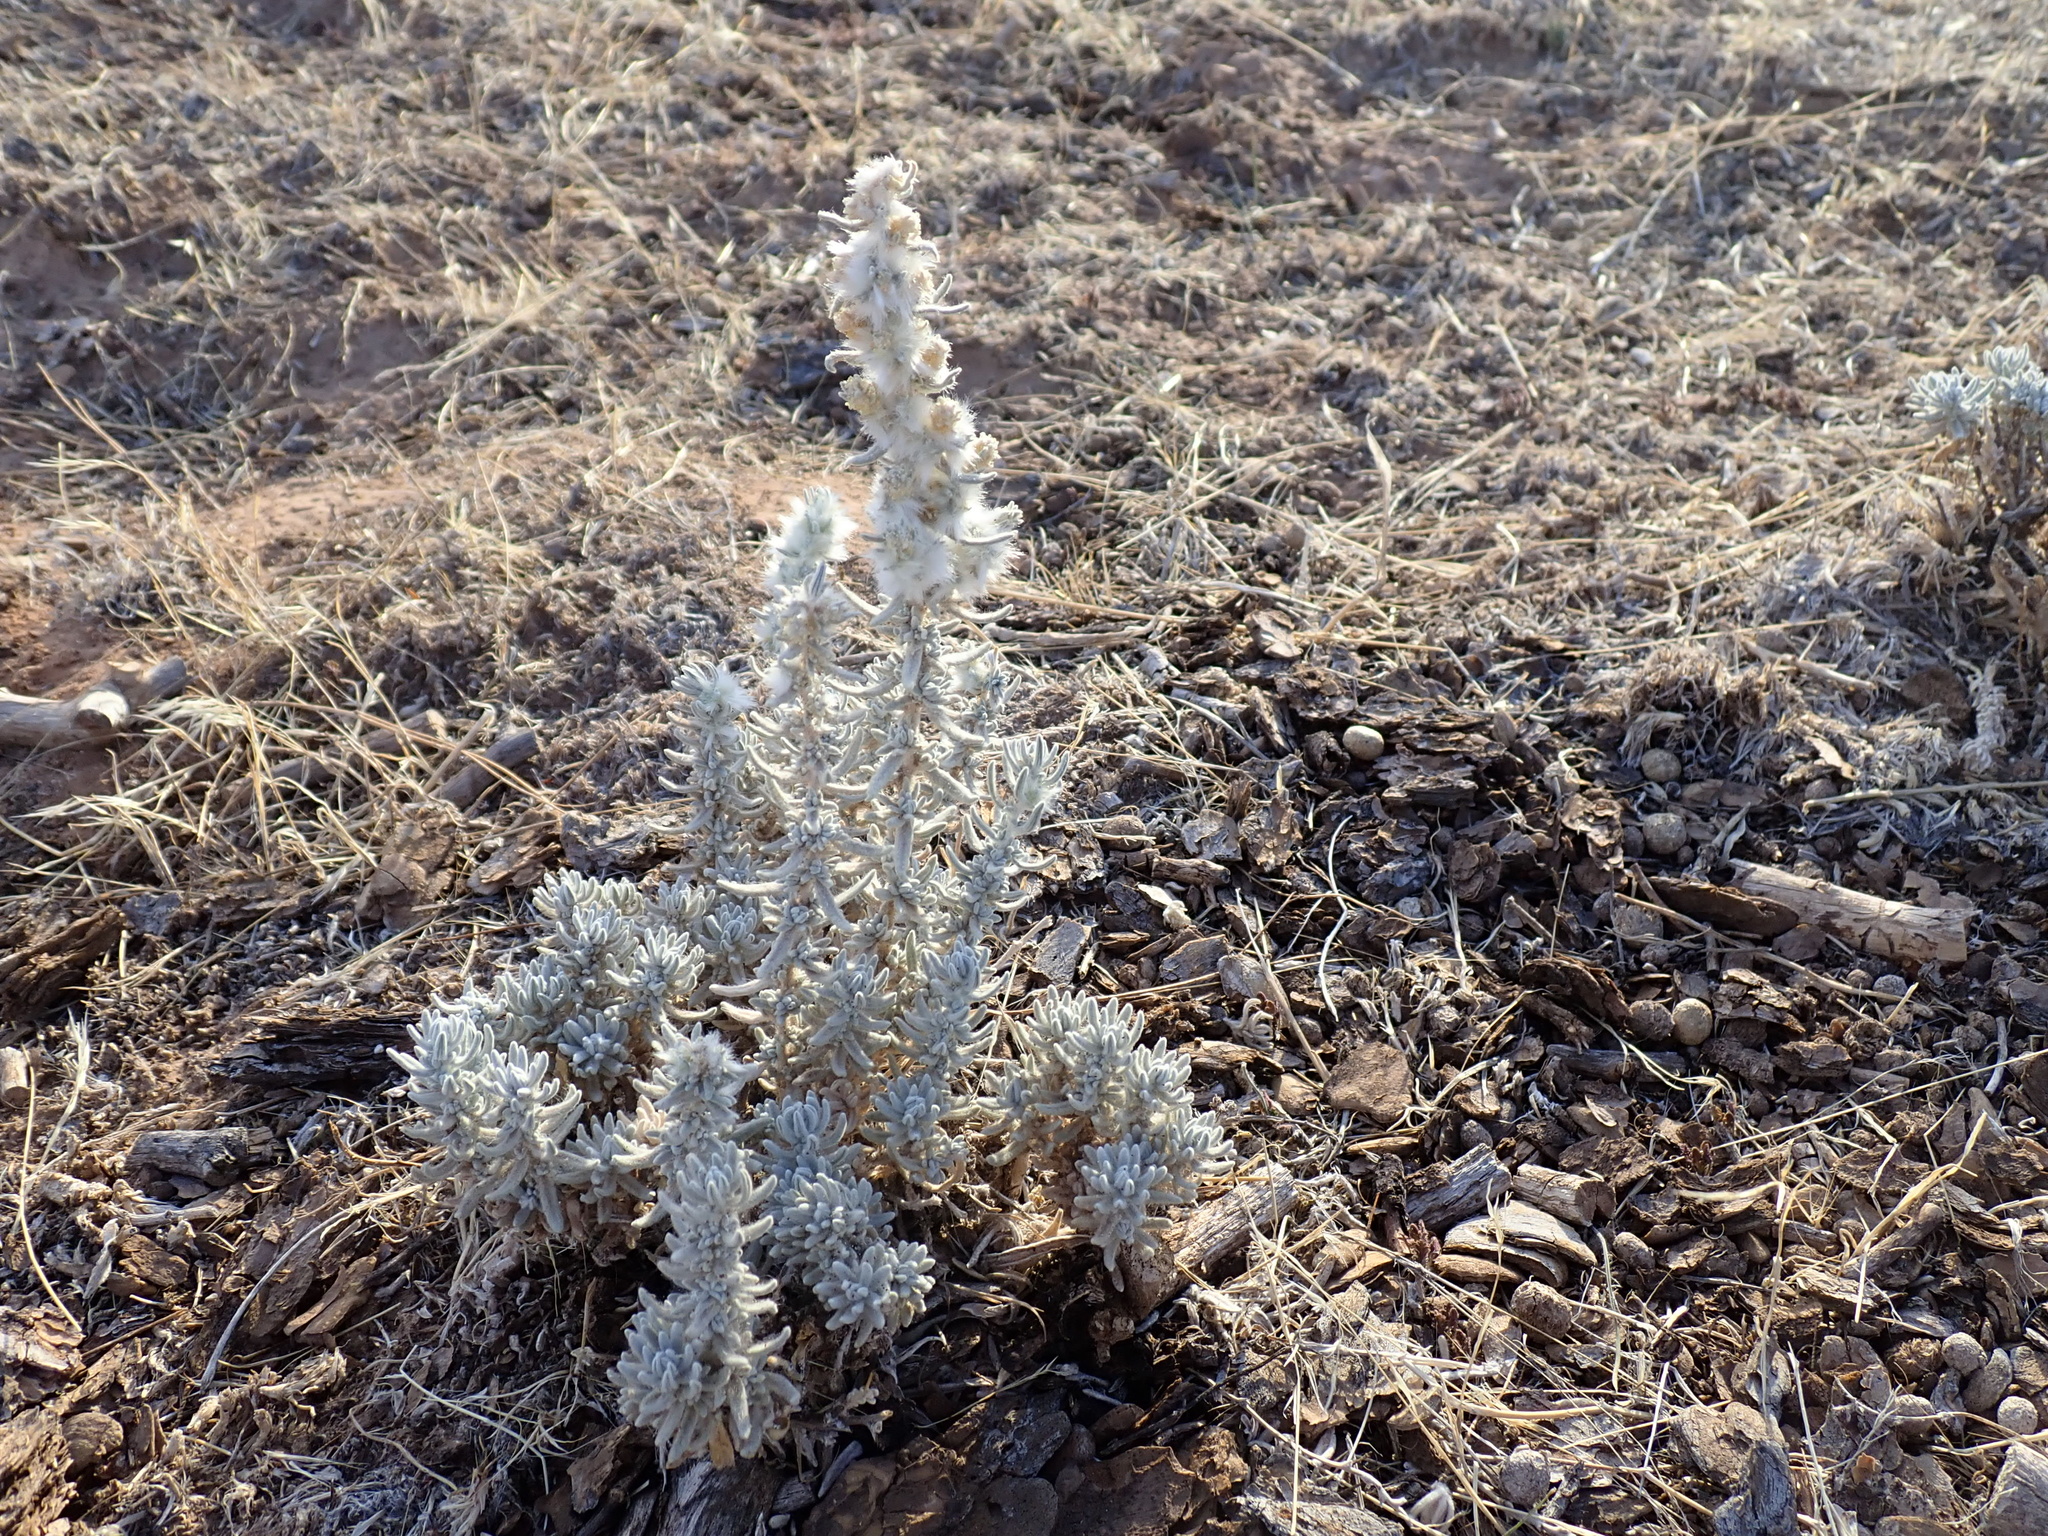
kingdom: Plantae
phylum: Tracheophyta
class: Magnoliopsida
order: Caryophyllales
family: Amaranthaceae
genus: Krascheninnikovia
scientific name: Krascheninnikovia lanata
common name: Winterfat
